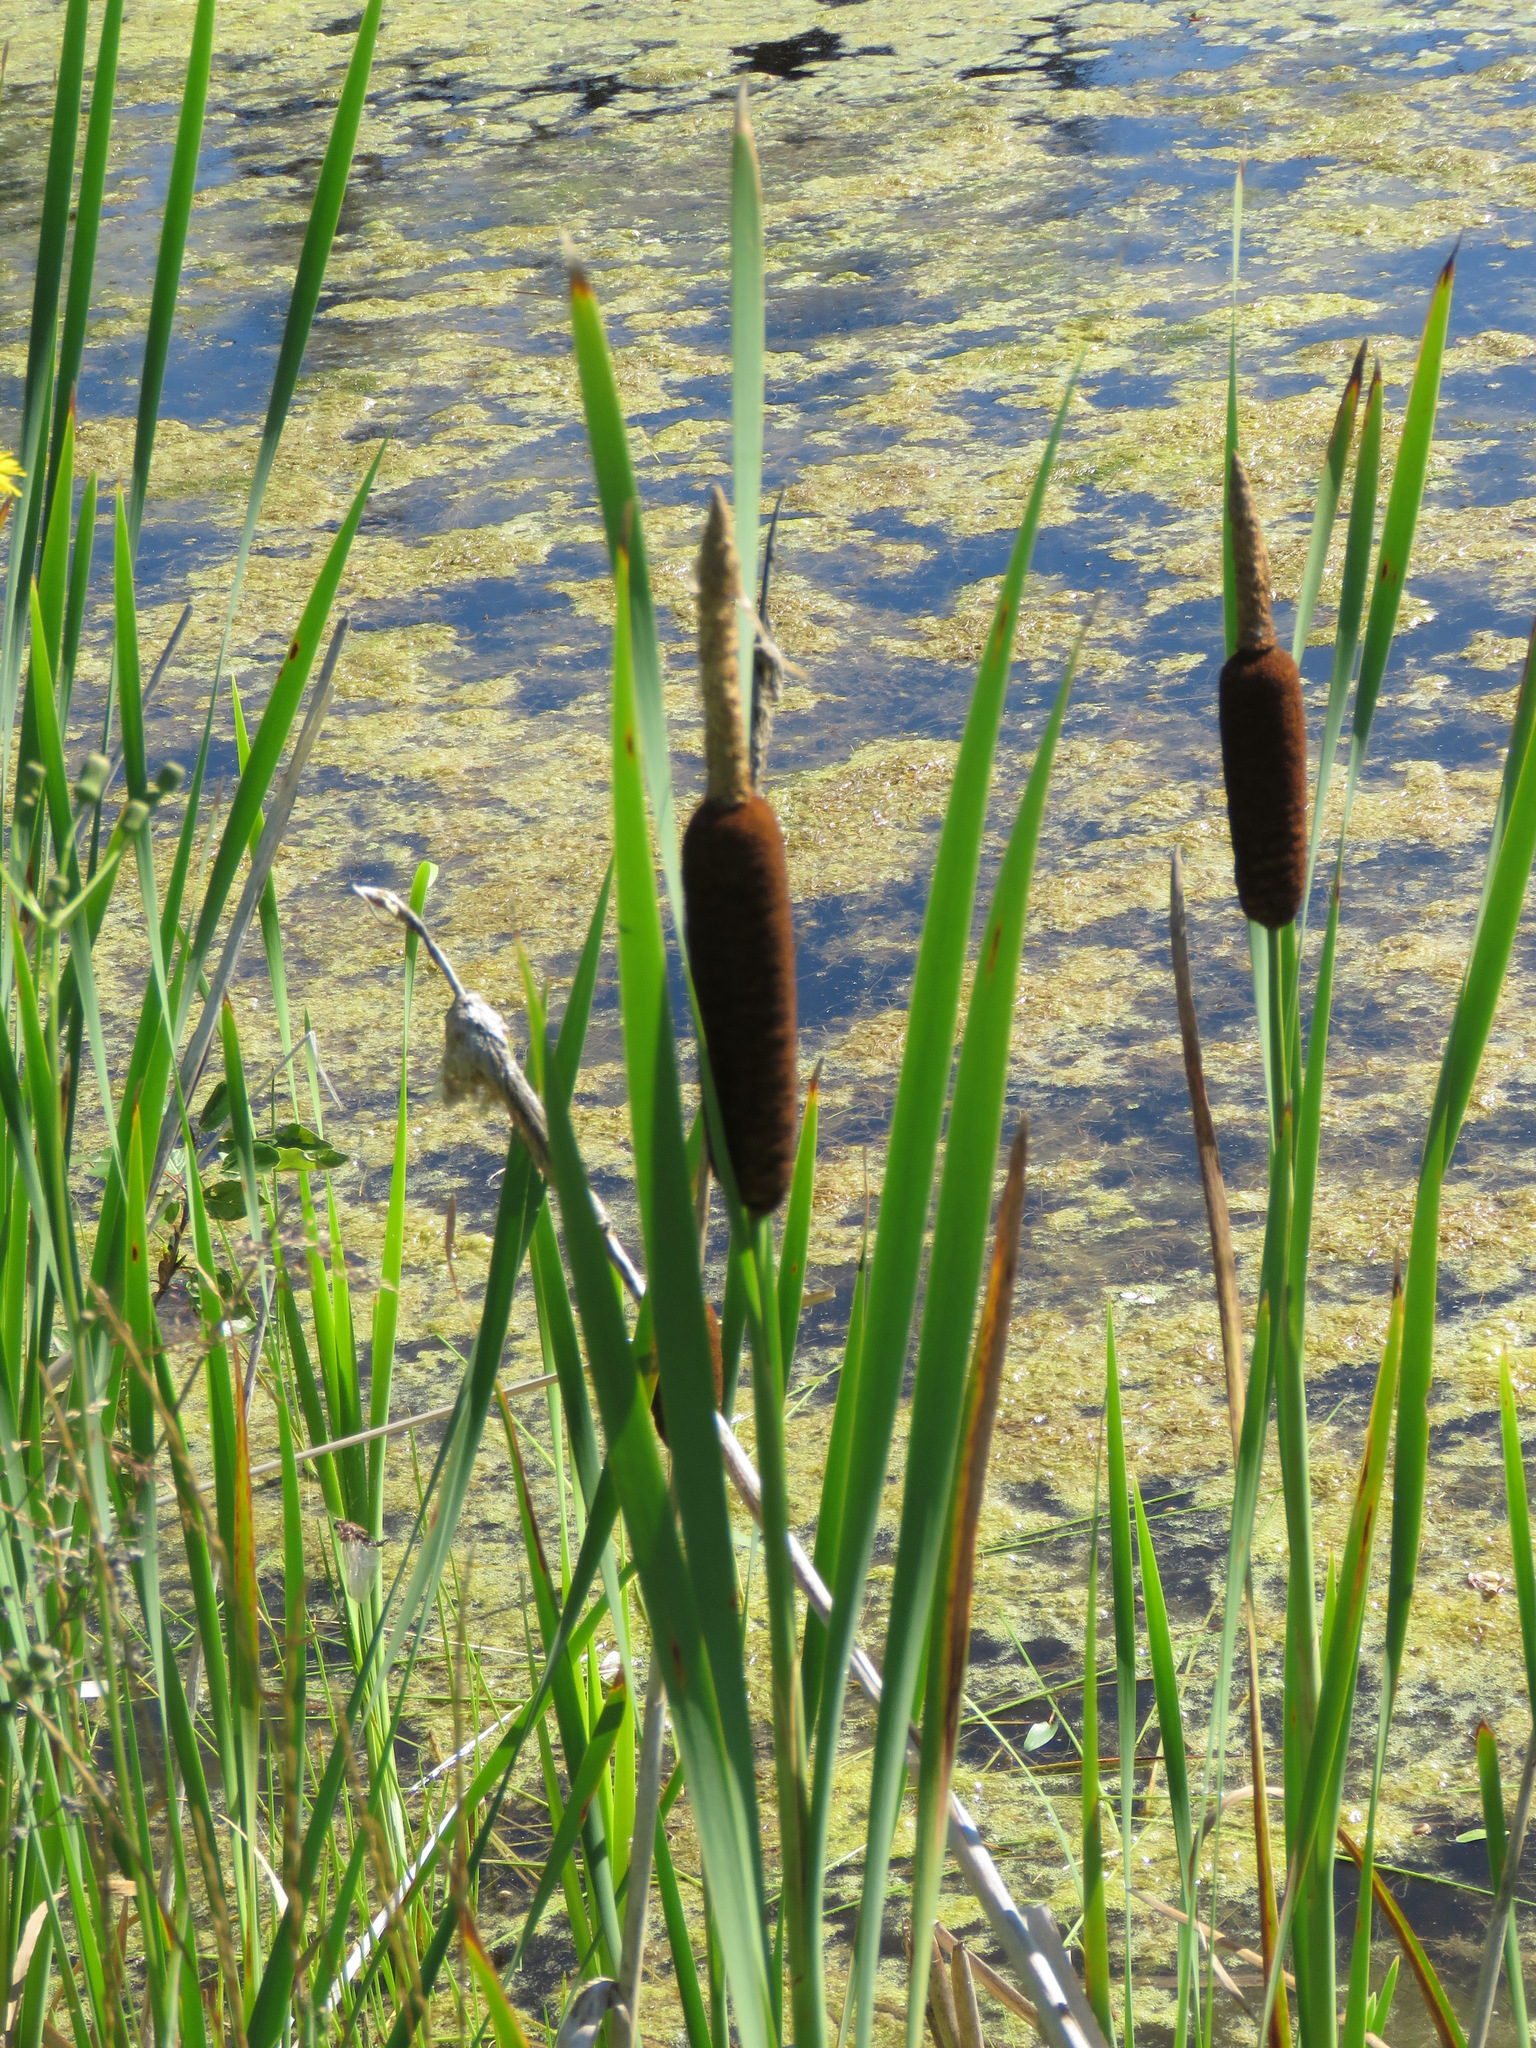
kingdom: Plantae
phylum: Tracheophyta
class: Liliopsida
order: Poales
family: Typhaceae
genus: Typha
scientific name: Typha latifolia
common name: Broadleaf cattail
